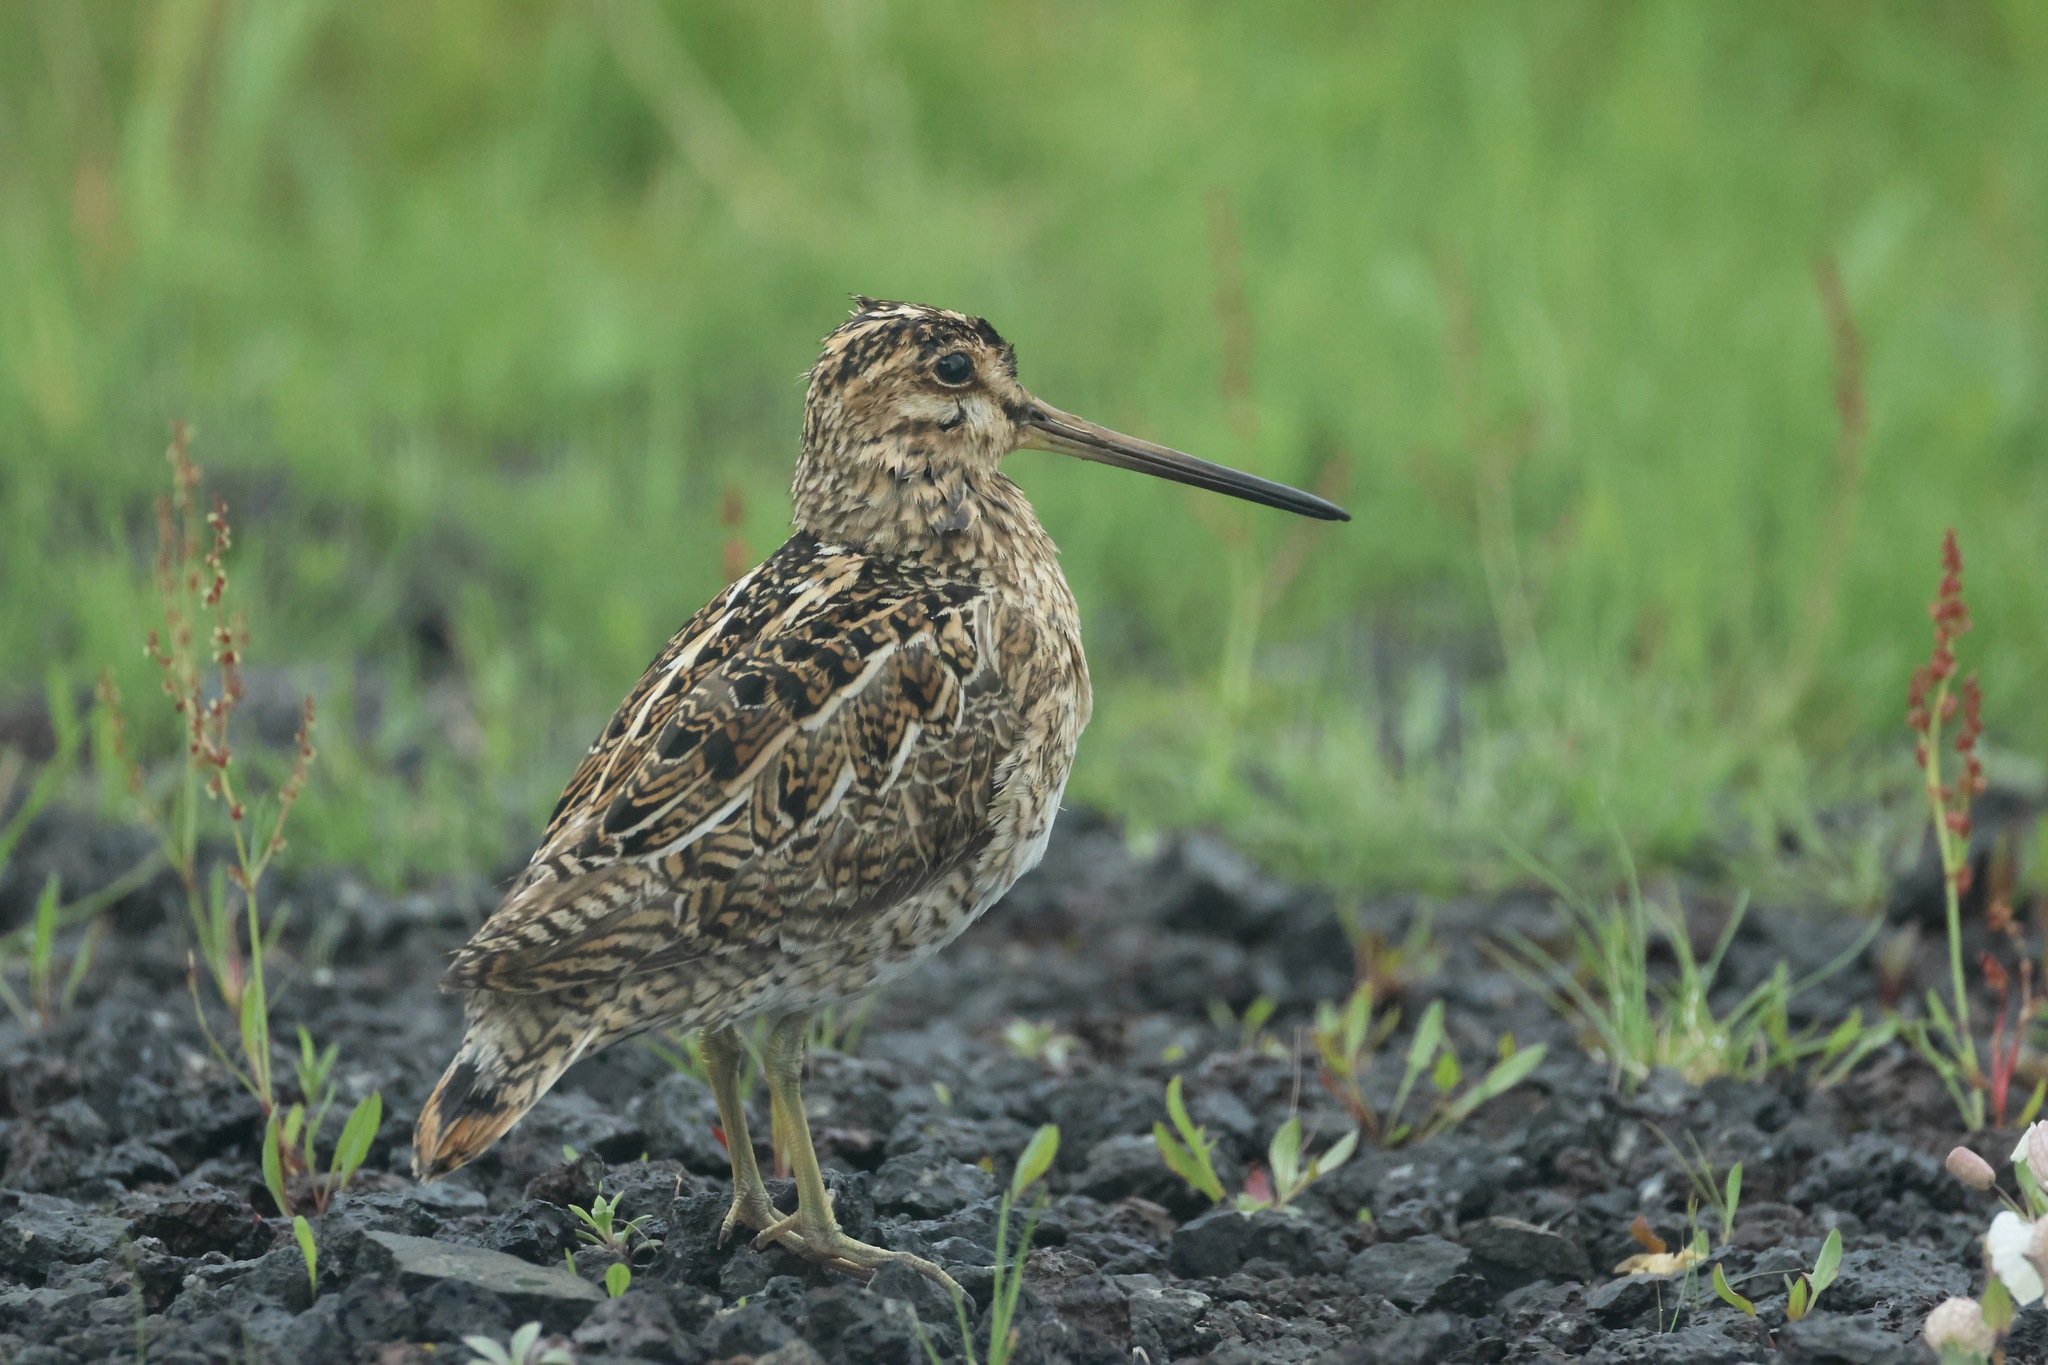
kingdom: Animalia
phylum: Chordata
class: Aves
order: Charadriiformes
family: Scolopacidae
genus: Gallinago
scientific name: Gallinago gallinago
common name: Common snipe
